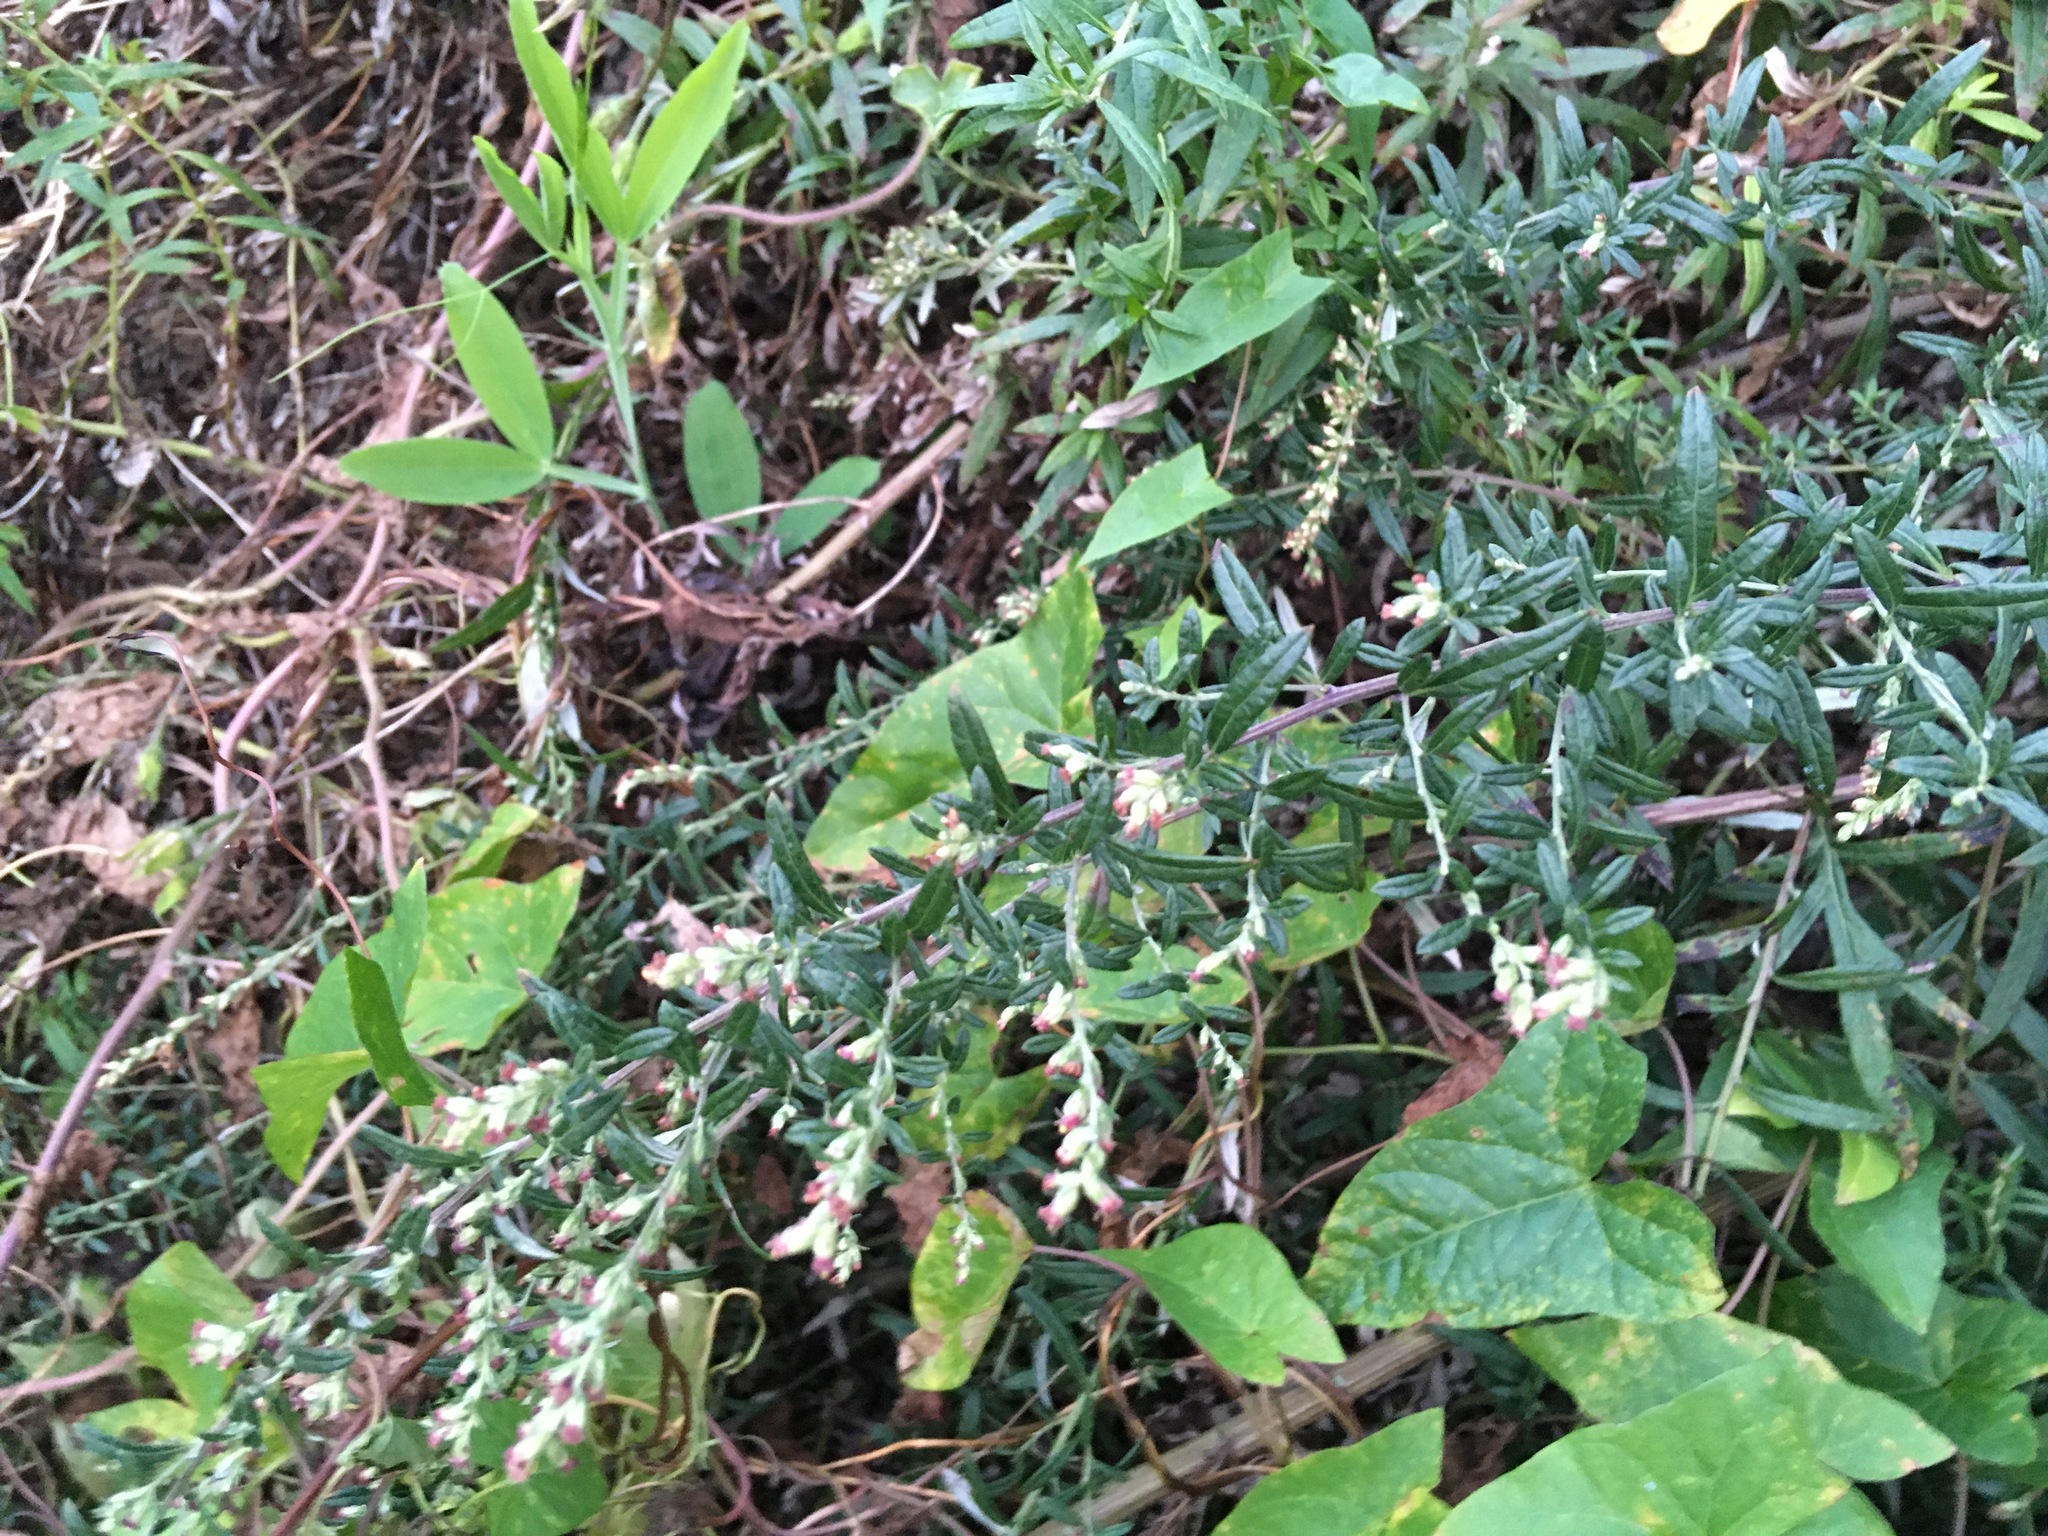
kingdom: Plantae
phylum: Tracheophyta
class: Magnoliopsida
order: Asterales
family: Asteraceae
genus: Artemisia
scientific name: Artemisia vulgaris
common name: Mugwort
